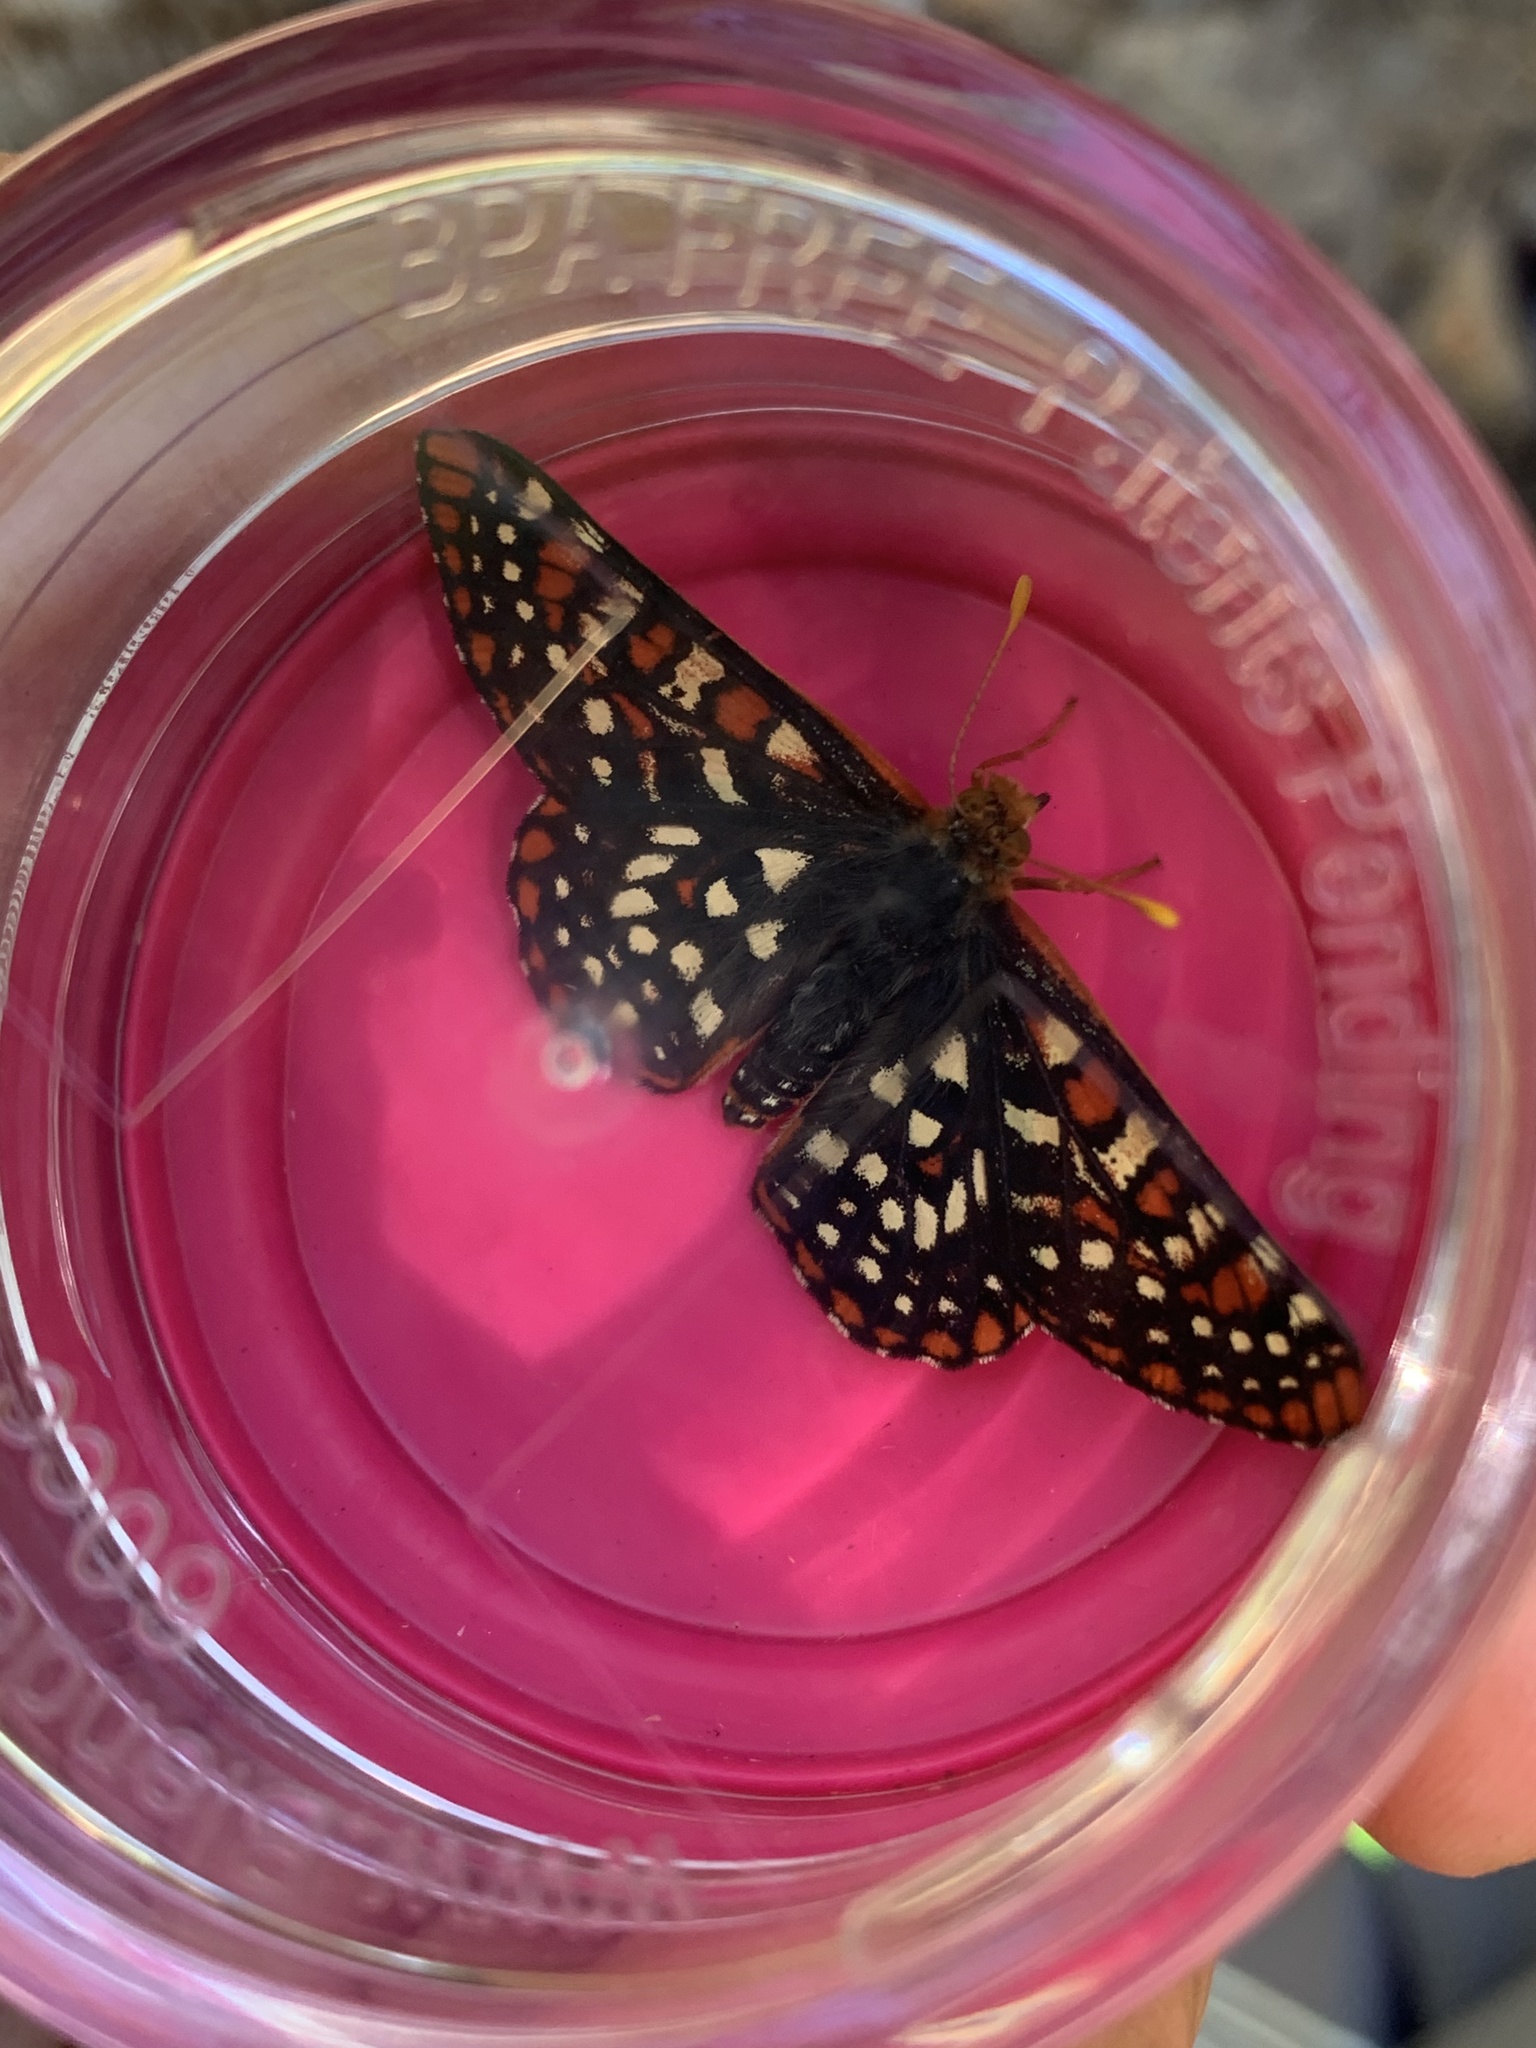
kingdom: Animalia
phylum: Arthropoda
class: Insecta
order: Lepidoptera
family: Nymphalidae
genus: Occidryas
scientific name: Occidryas chalcedona
